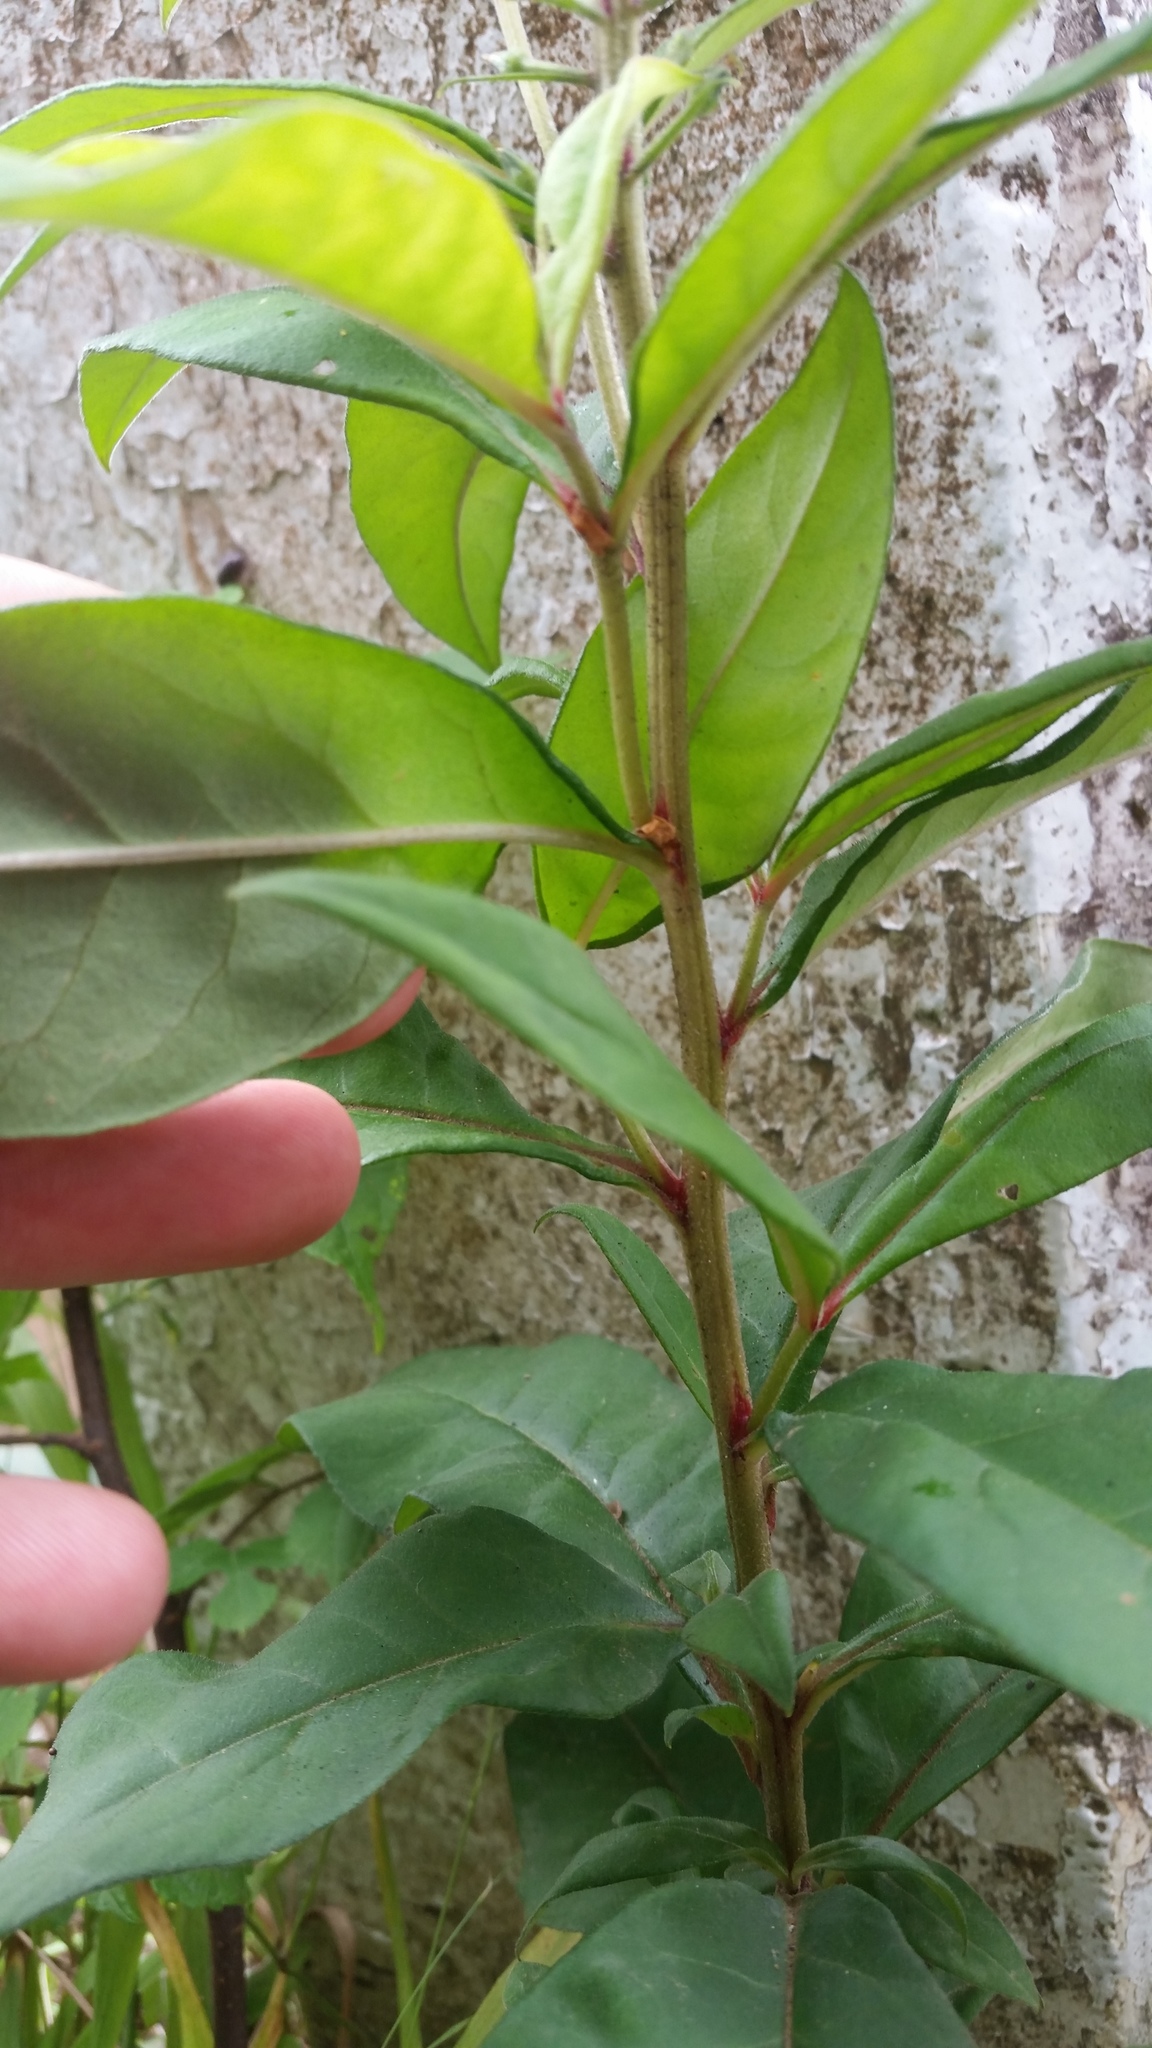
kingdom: Plantae
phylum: Tracheophyta
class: Magnoliopsida
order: Ericales
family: Primulaceae
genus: Lysimachia
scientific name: Lysimachia clethroides
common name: Gooseneck loosestrife
